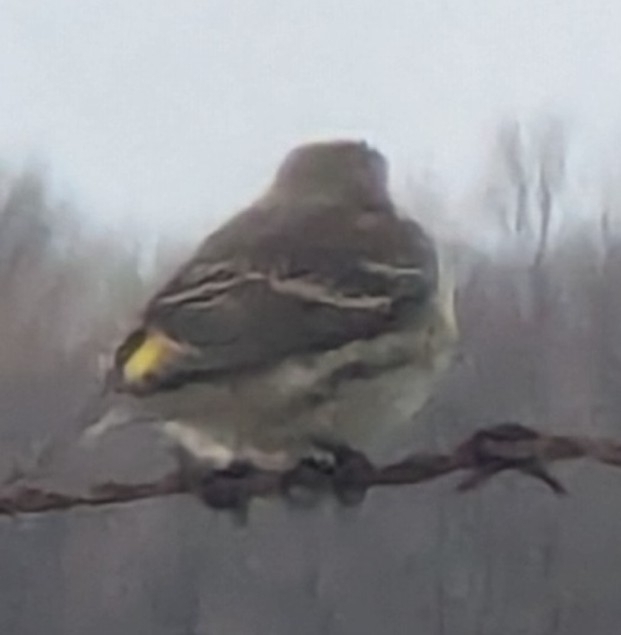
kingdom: Animalia
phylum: Chordata
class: Aves
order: Passeriformes
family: Parulidae
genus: Setophaga
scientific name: Setophaga coronata
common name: Myrtle warbler
